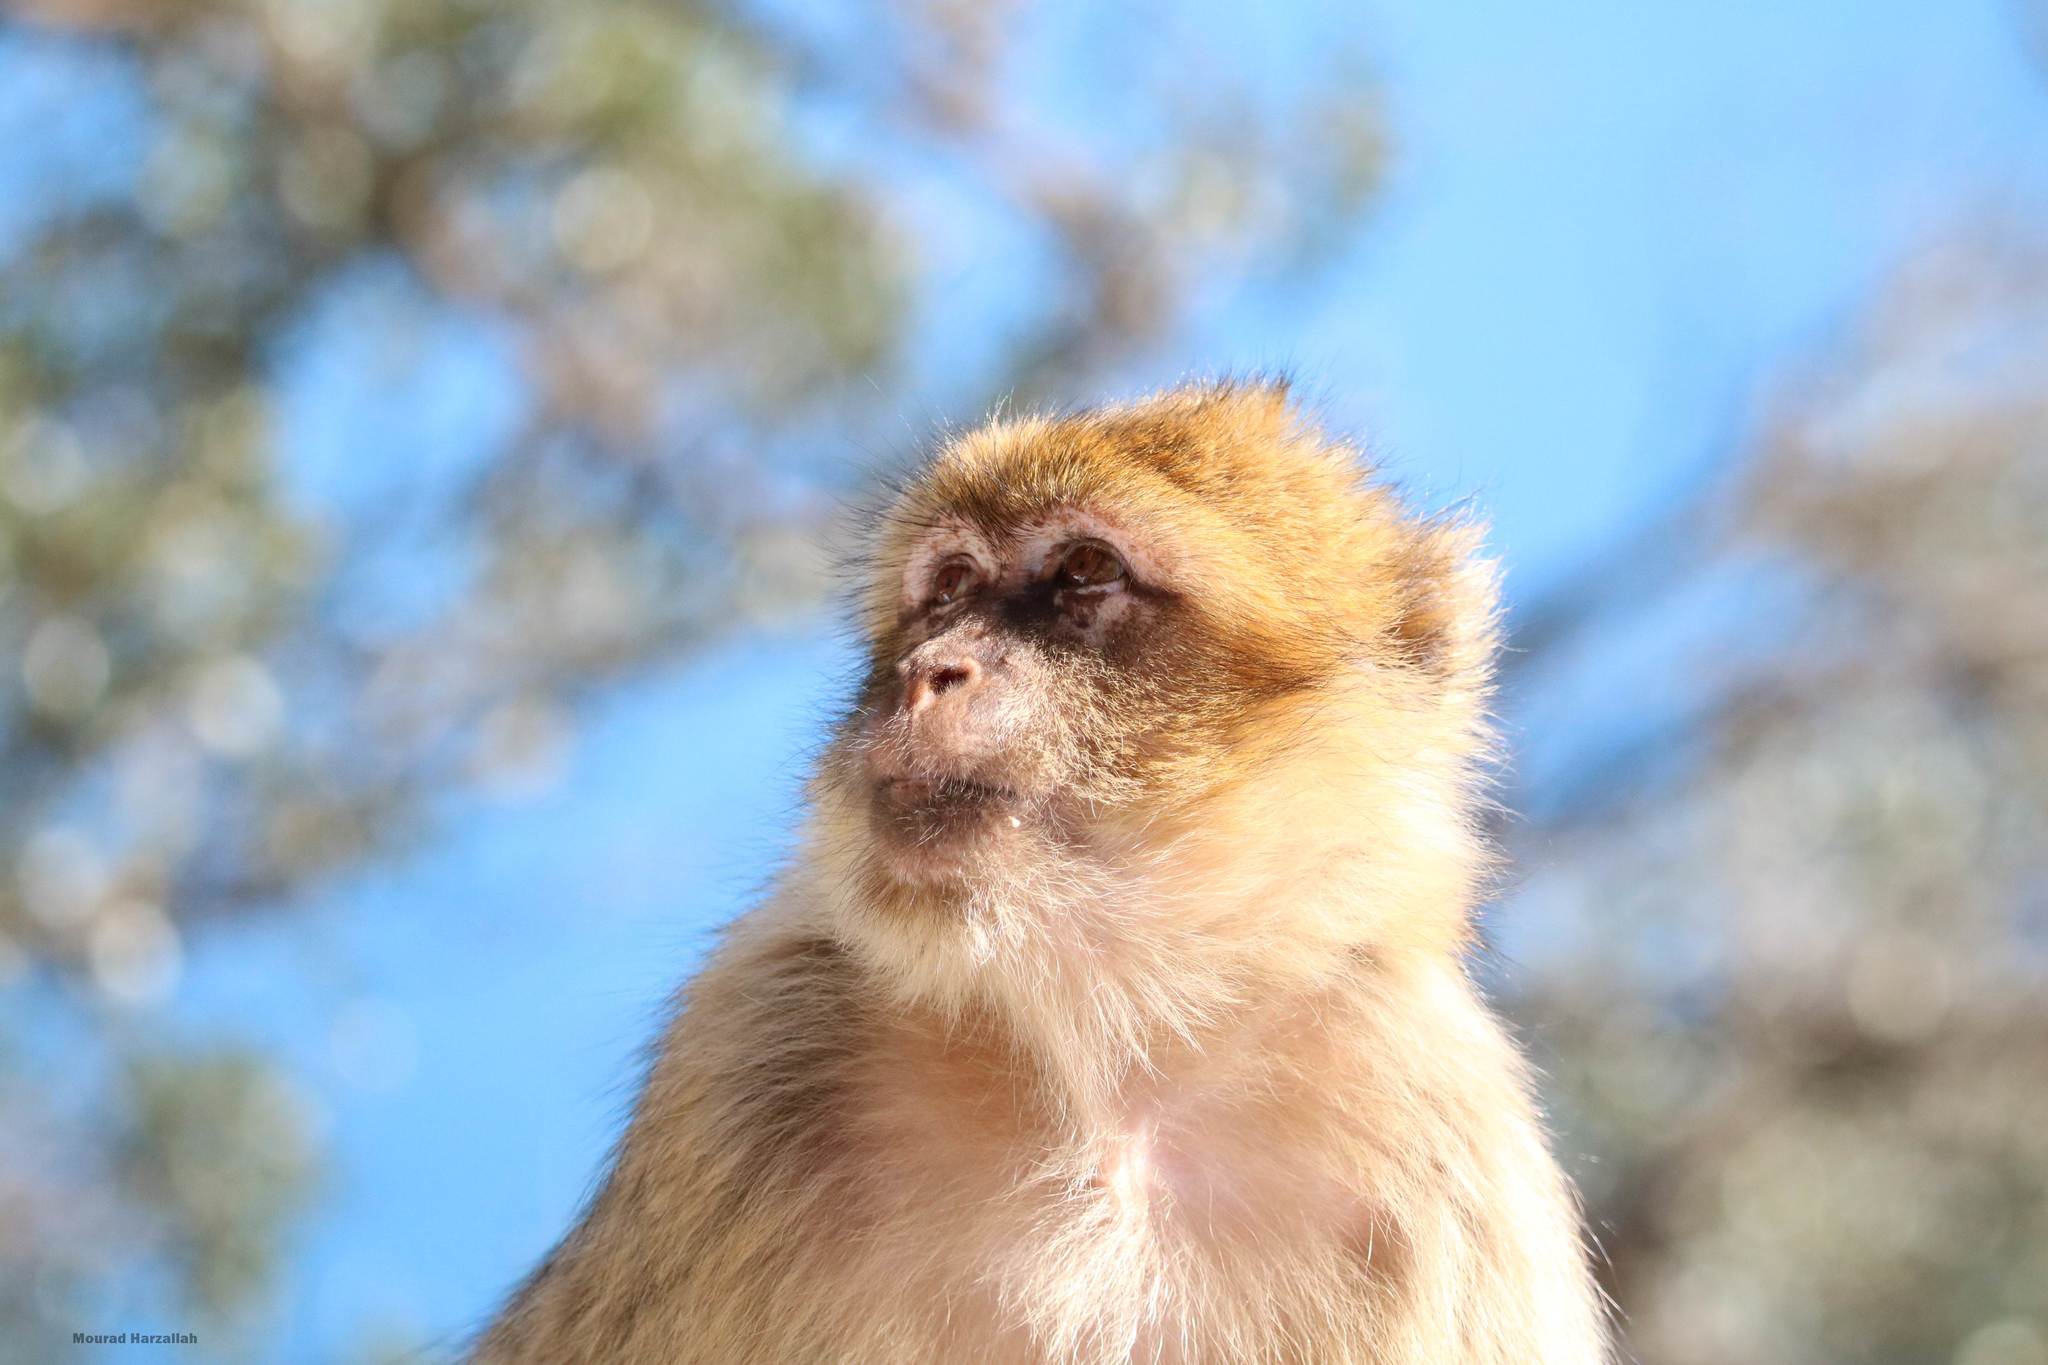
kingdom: Animalia
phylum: Chordata
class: Mammalia
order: Primates
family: Cercopithecidae
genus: Macaca
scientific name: Macaca sylvanus
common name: Barbary macaque
